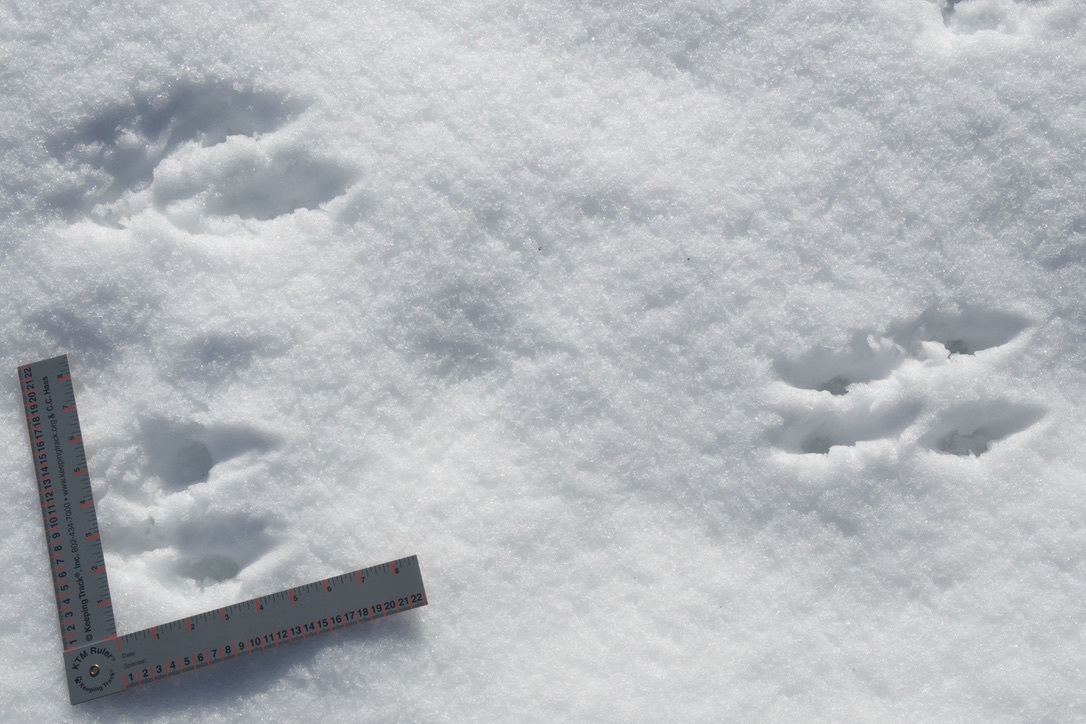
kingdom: Animalia
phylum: Chordata
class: Mammalia
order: Rodentia
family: Sciuridae
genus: Sciurus
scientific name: Sciurus carolinensis
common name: Eastern gray squirrel
